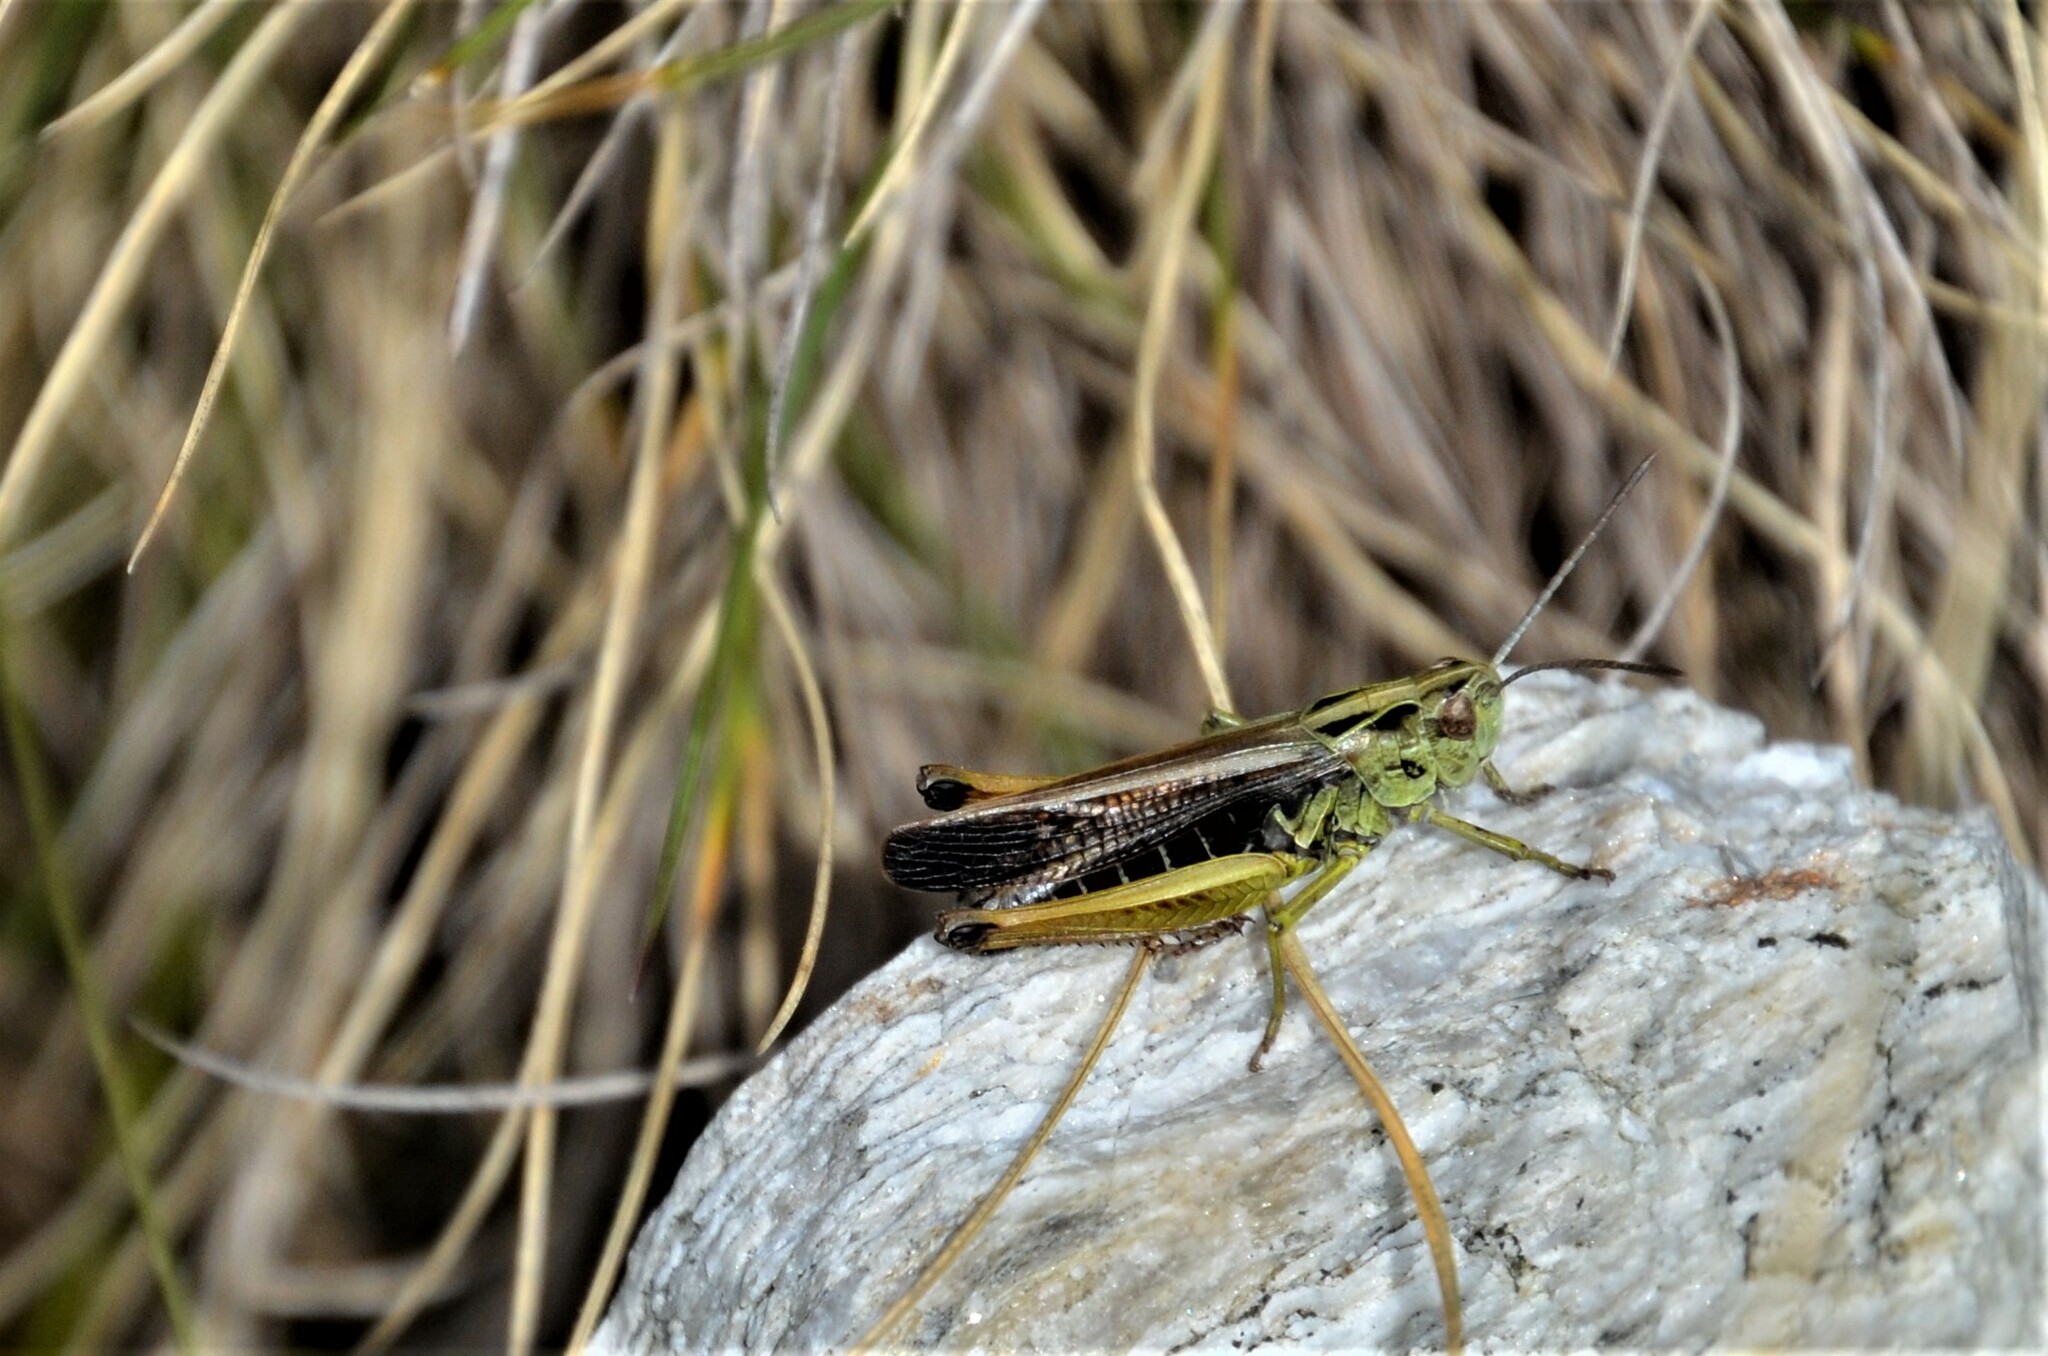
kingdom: Animalia
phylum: Arthropoda
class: Insecta
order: Orthoptera
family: Acrididae
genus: Omocestus
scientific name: Omocestus viridulus
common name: Common green grasshopper
